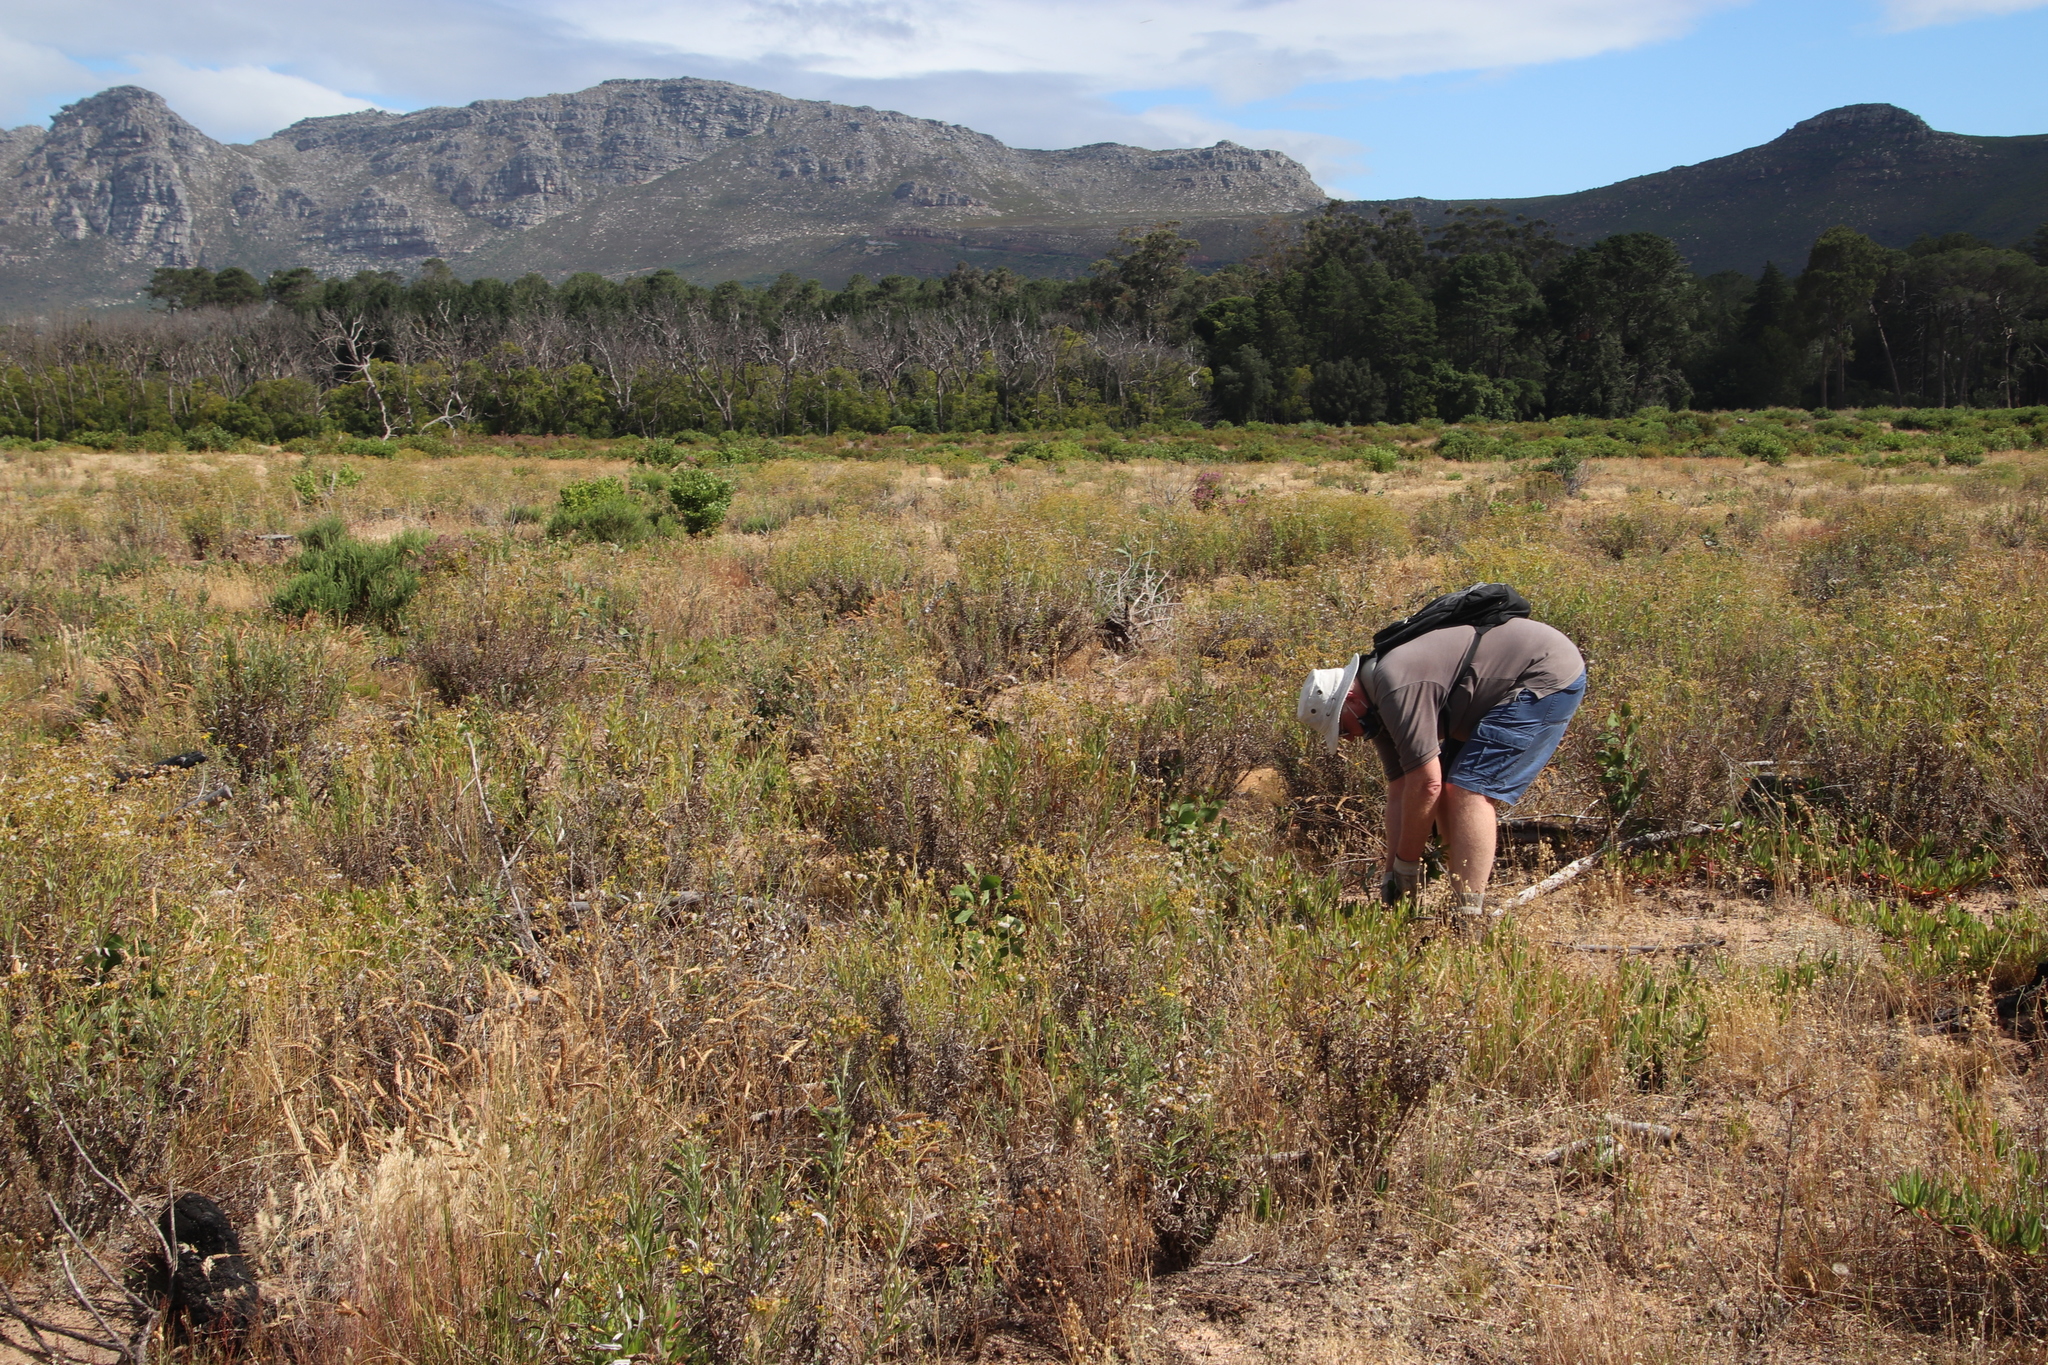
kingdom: Plantae
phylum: Tracheophyta
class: Magnoliopsida
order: Fabales
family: Fabaceae
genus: Acacia
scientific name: Acacia pycnantha
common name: Golden wattle
